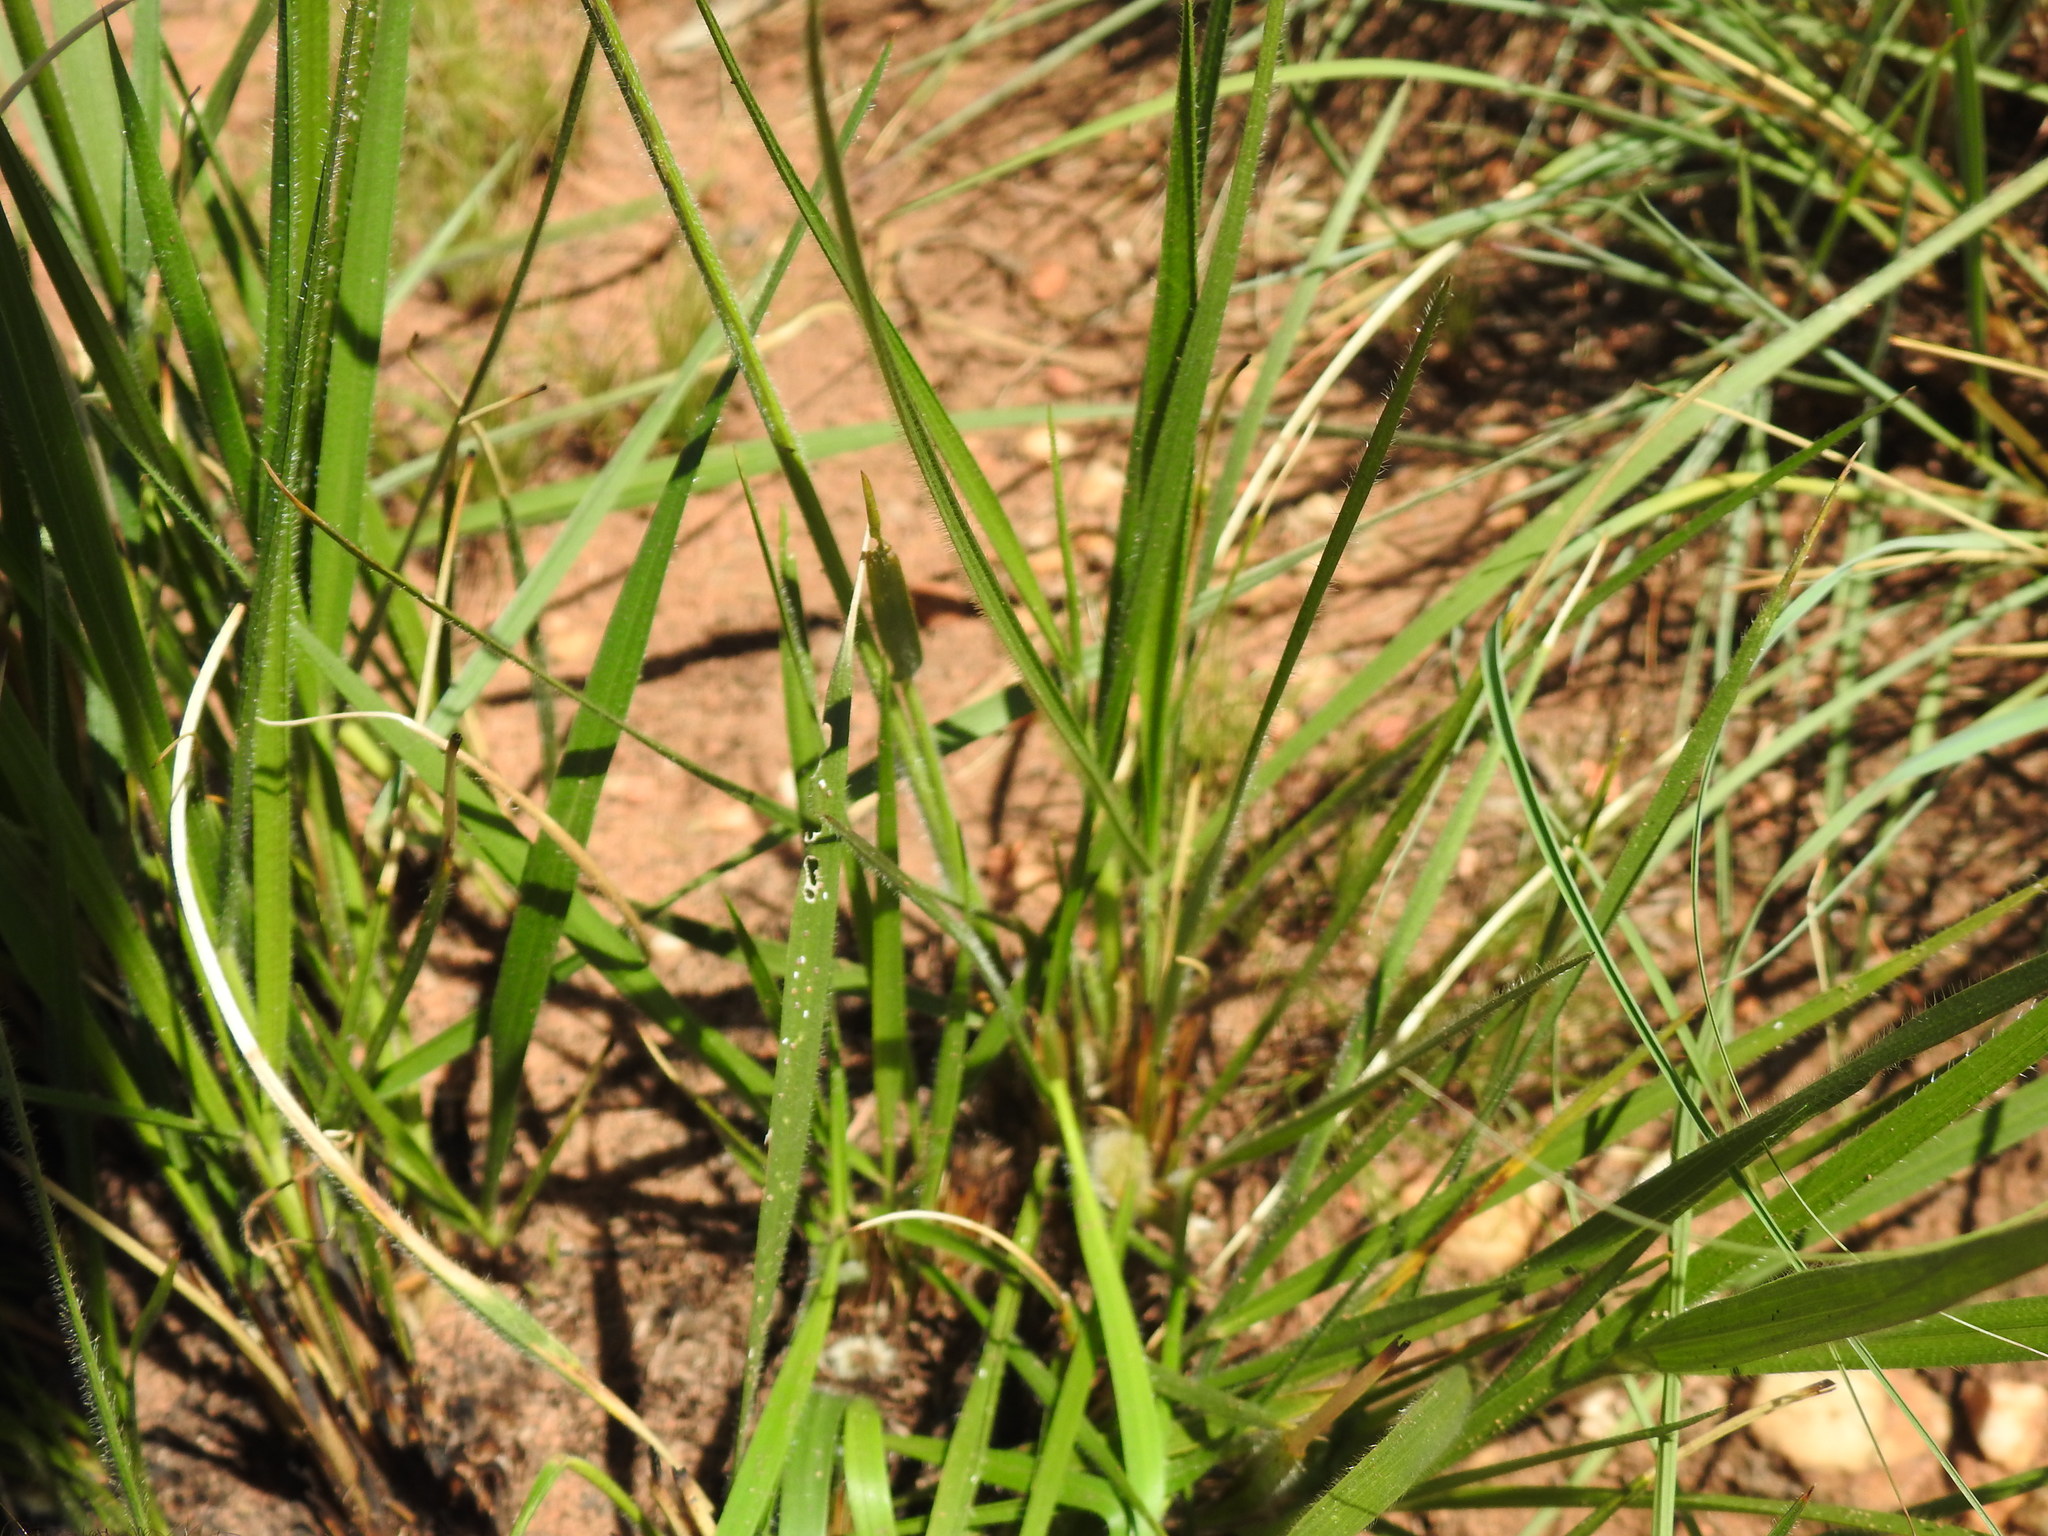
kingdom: Plantae
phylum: Tracheophyta
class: Liliopsida
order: Poales
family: Poaceae
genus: Alloteropsis
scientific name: Alloteropsis semialata
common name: Cockatoo grass
